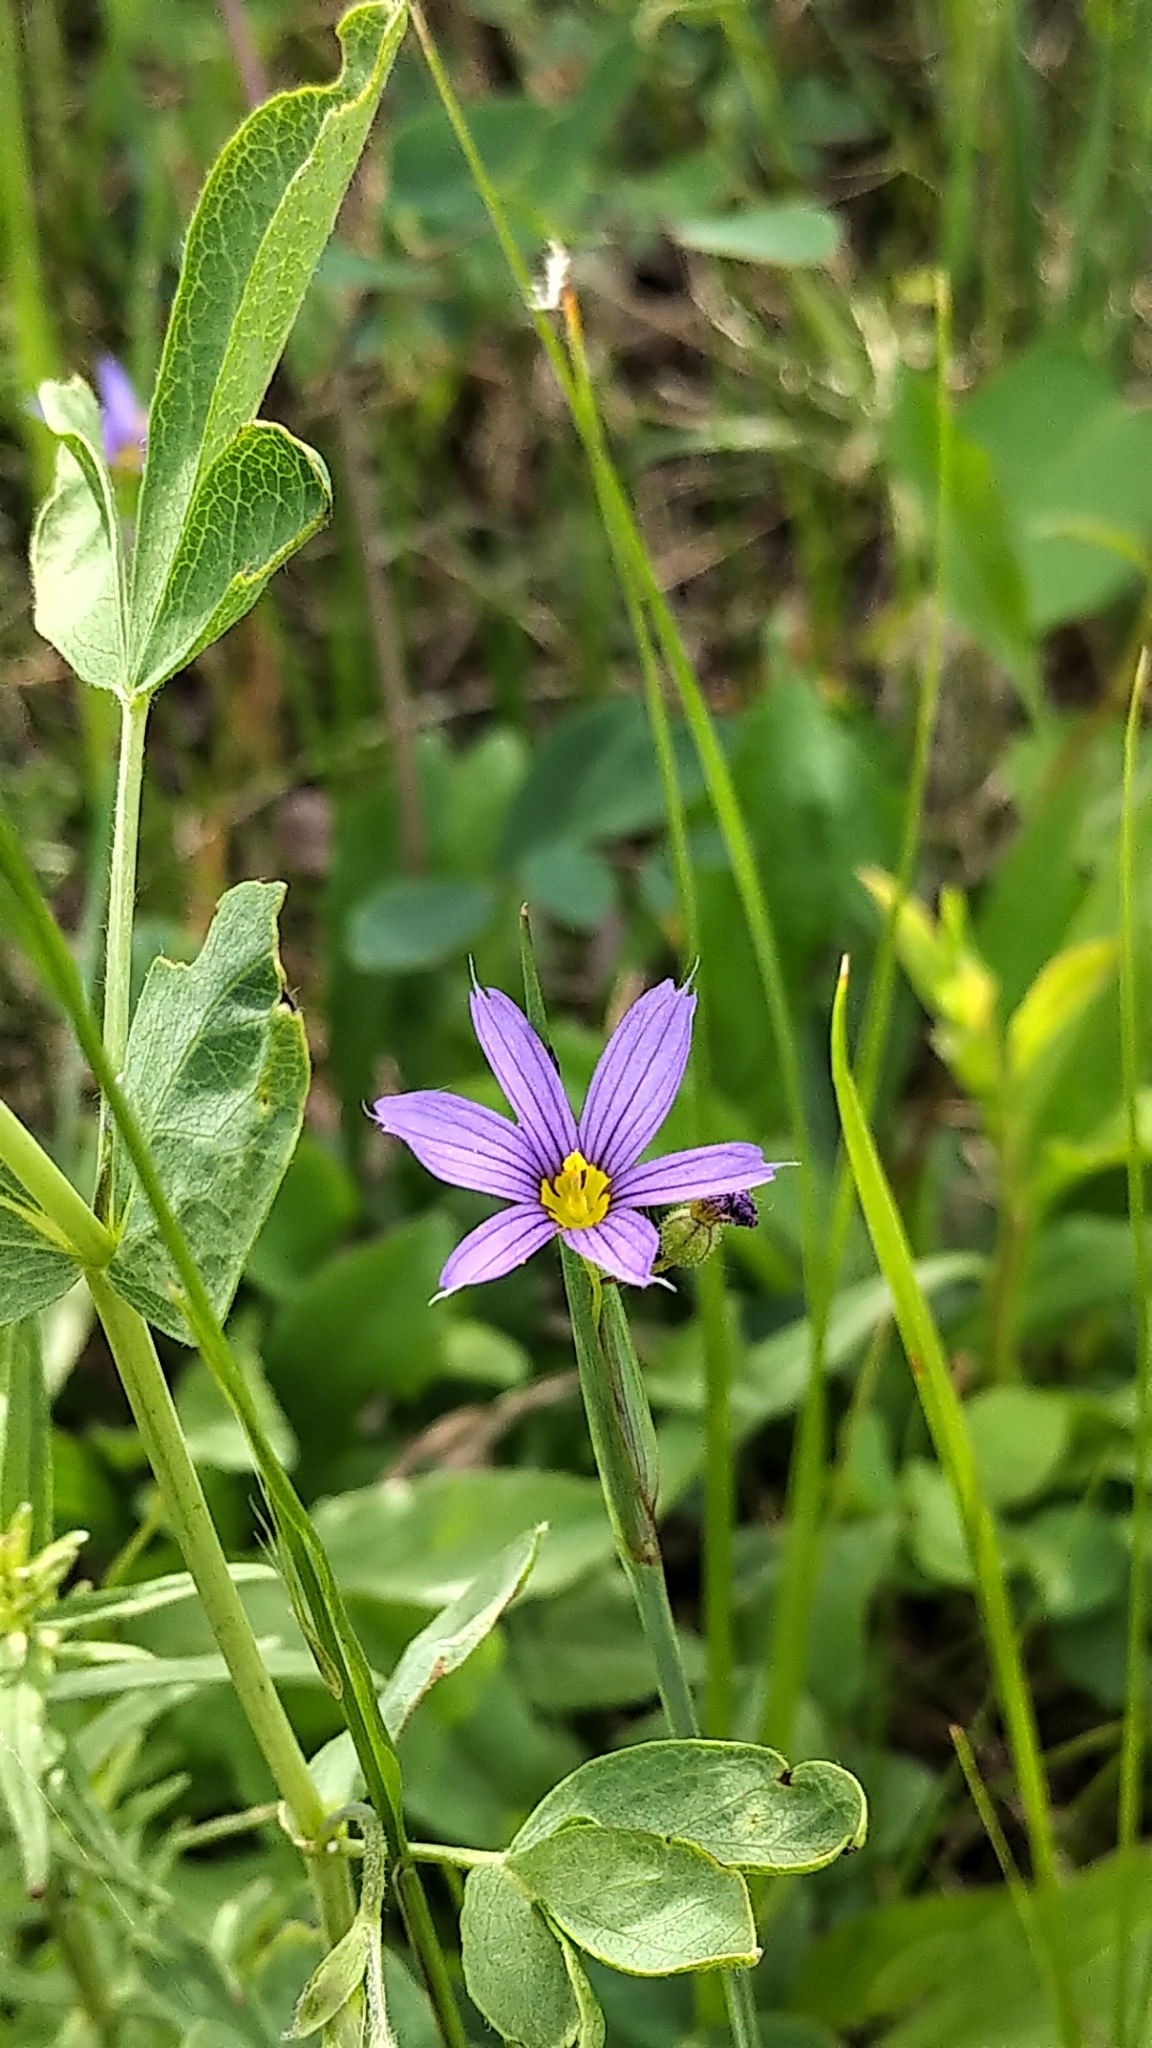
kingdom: Plantae
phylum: Tracheophyta
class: Liliopsida
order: Asparagales
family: Iridaceae
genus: Sisyrinchium
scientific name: Sisyrinchium montanum
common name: American blue-eyed-grass
